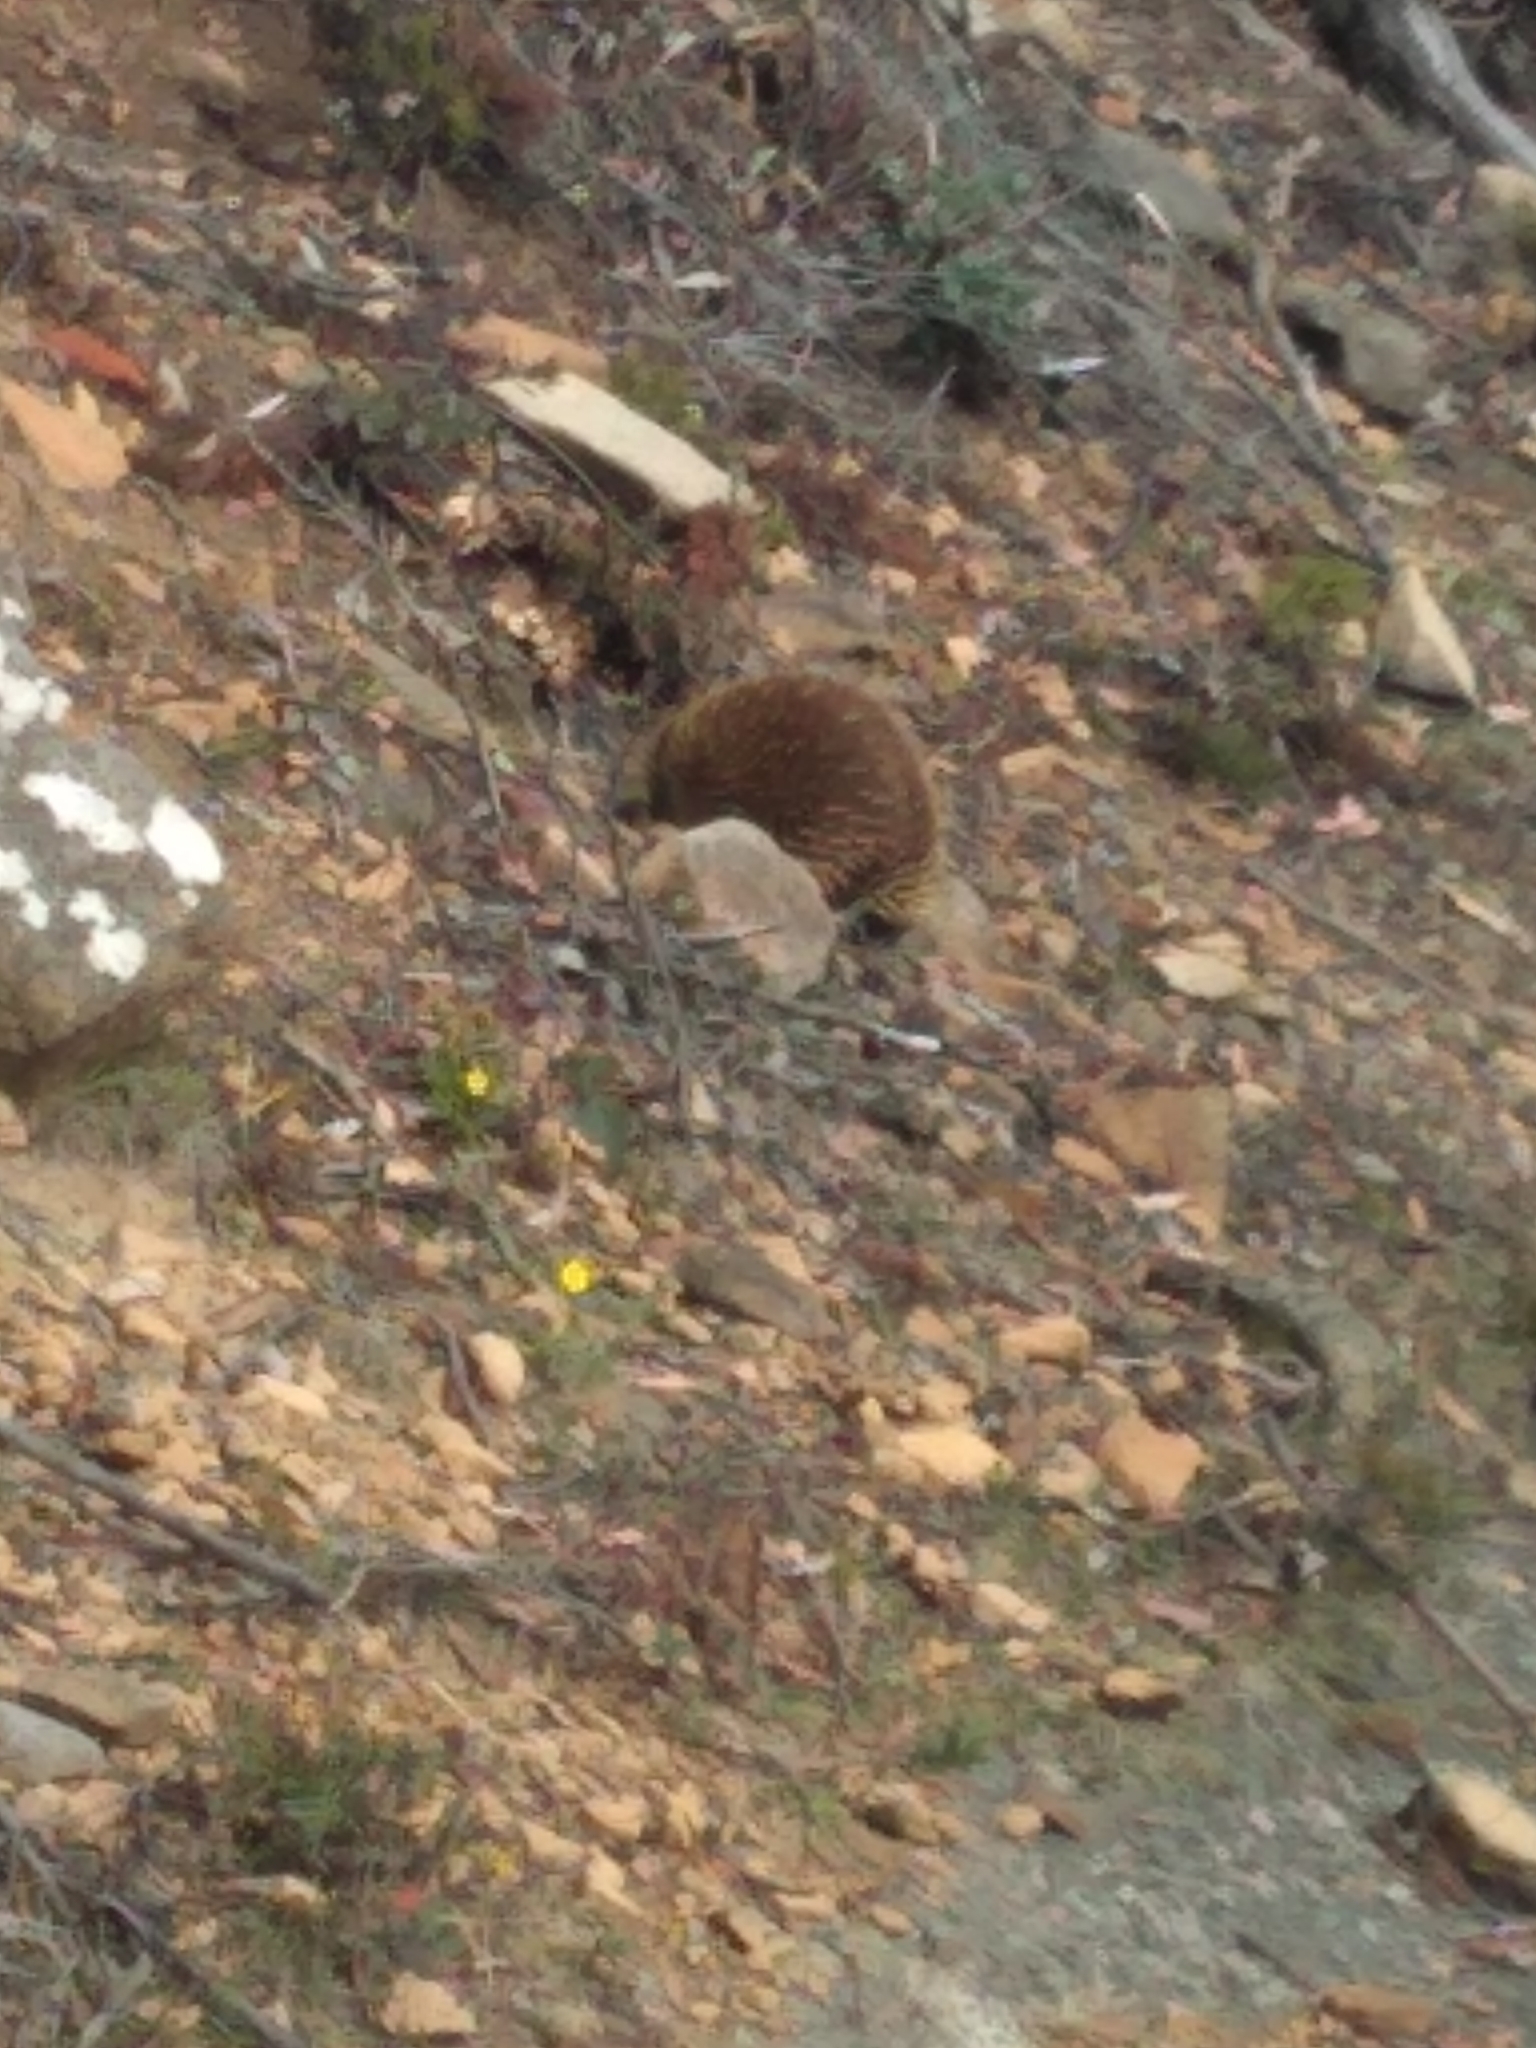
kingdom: Animalia
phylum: Chordata
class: Mammalia
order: Monotremata
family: Tachyglossidae
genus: Tachyglossus
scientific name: Tachyglossus aculeatus
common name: Short-beaked echidna
